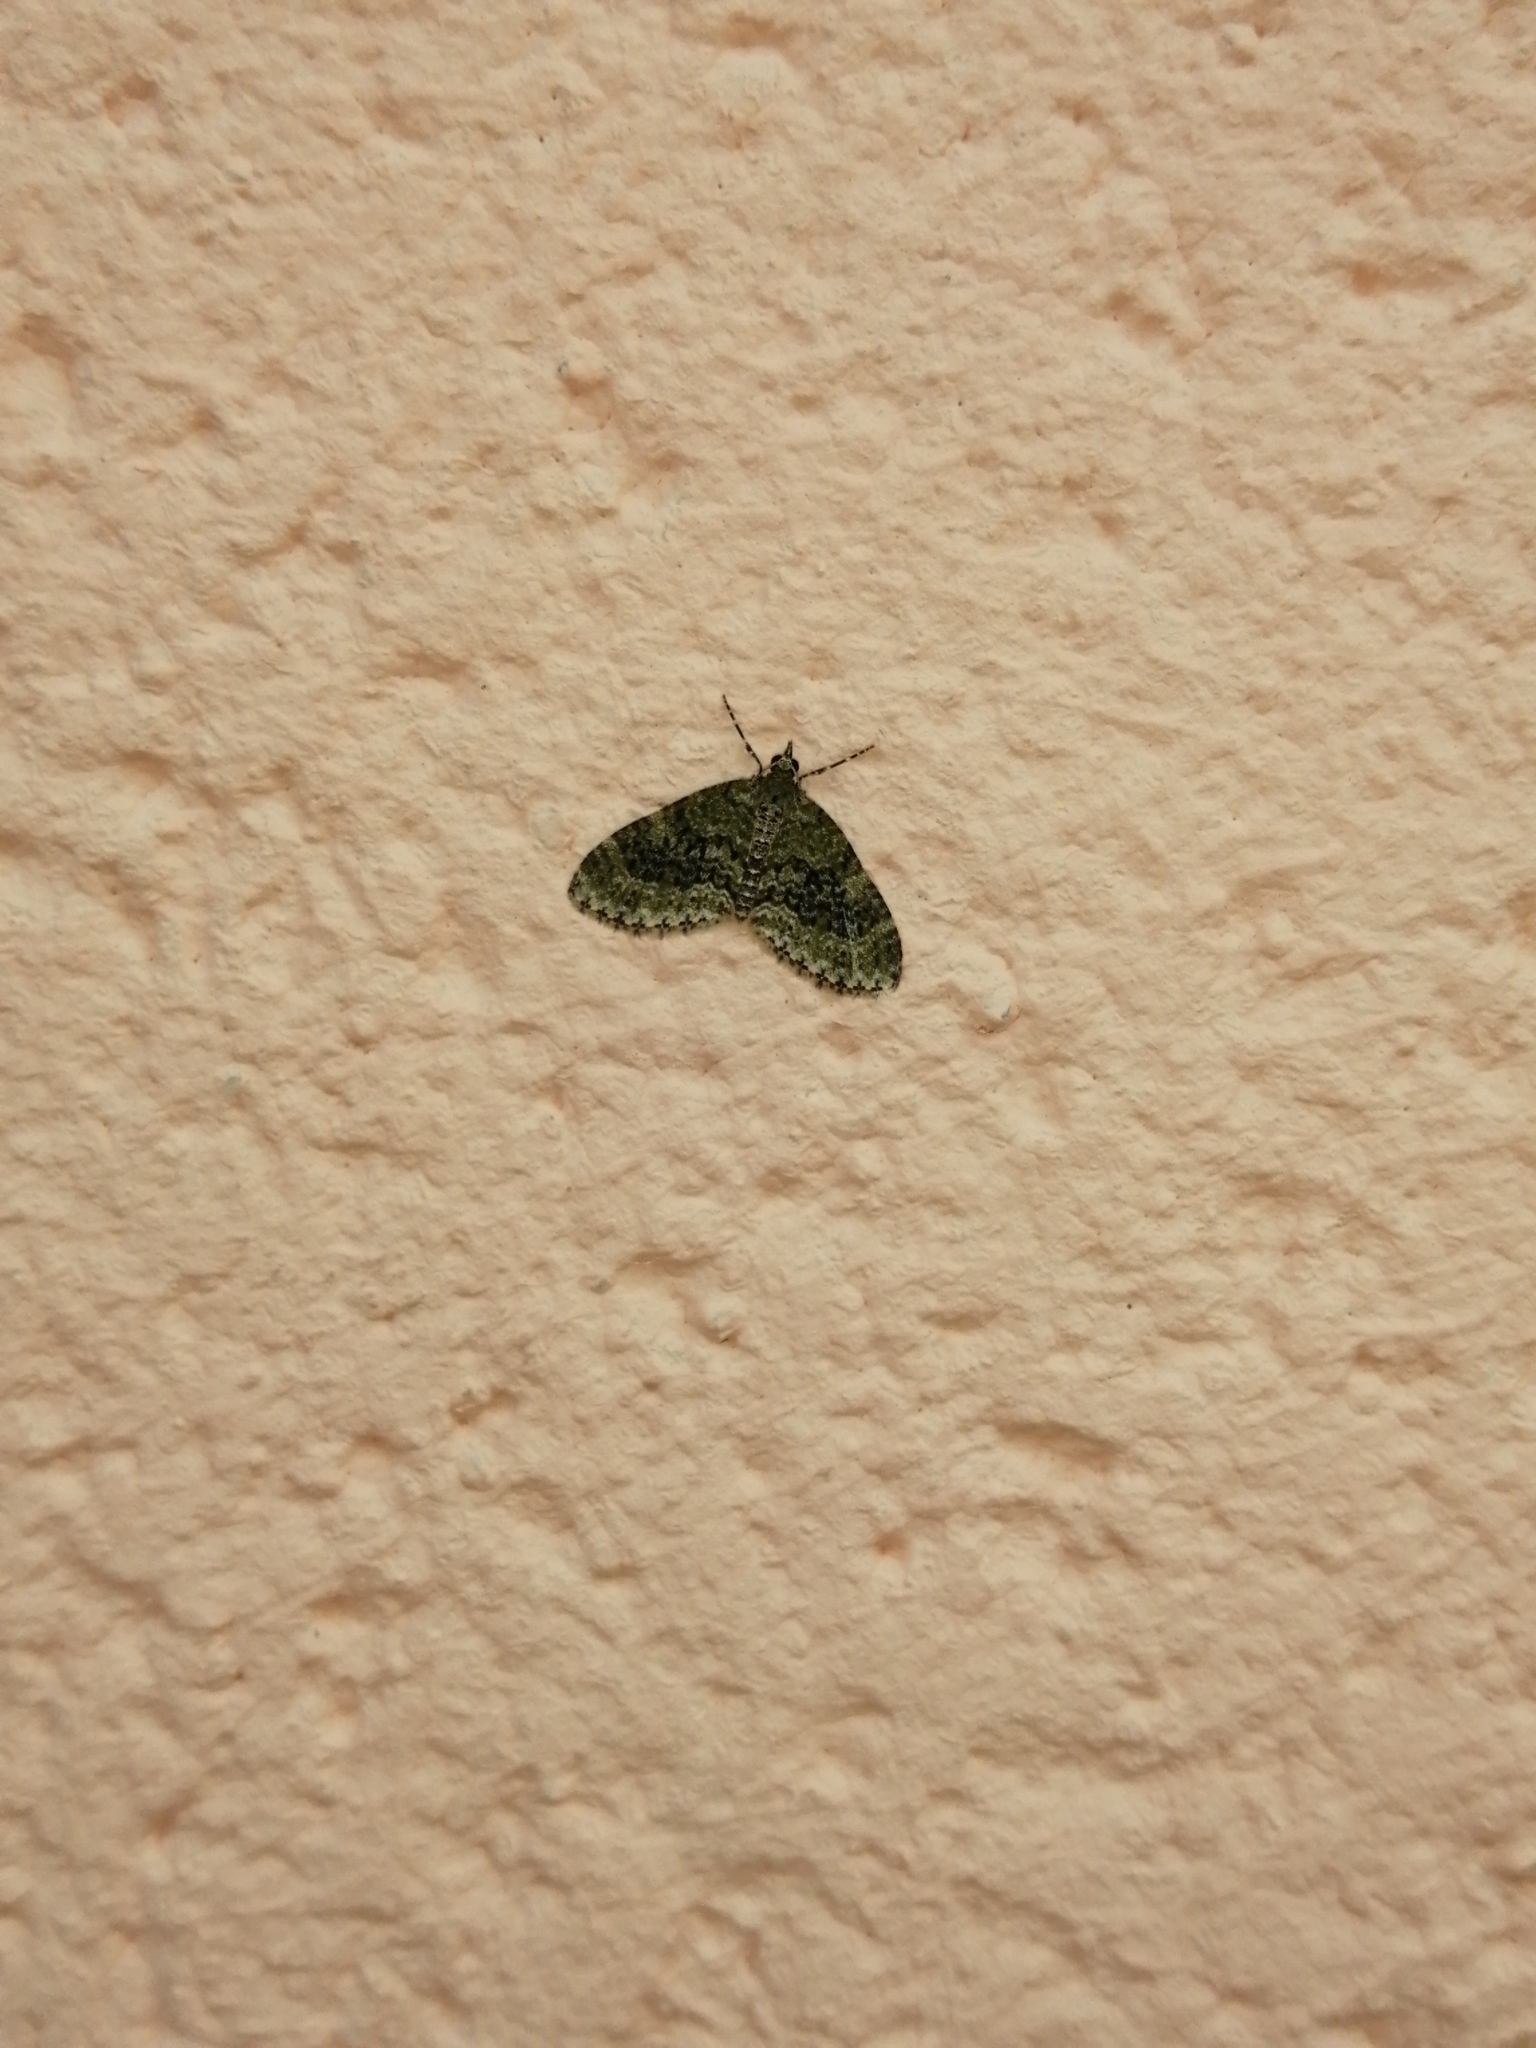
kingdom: Animalia
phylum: Arthropoda
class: Insecta
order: Lepidoptera
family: Geometridae
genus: Acasis
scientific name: Acasis viretata
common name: Yellow-barred brindle
